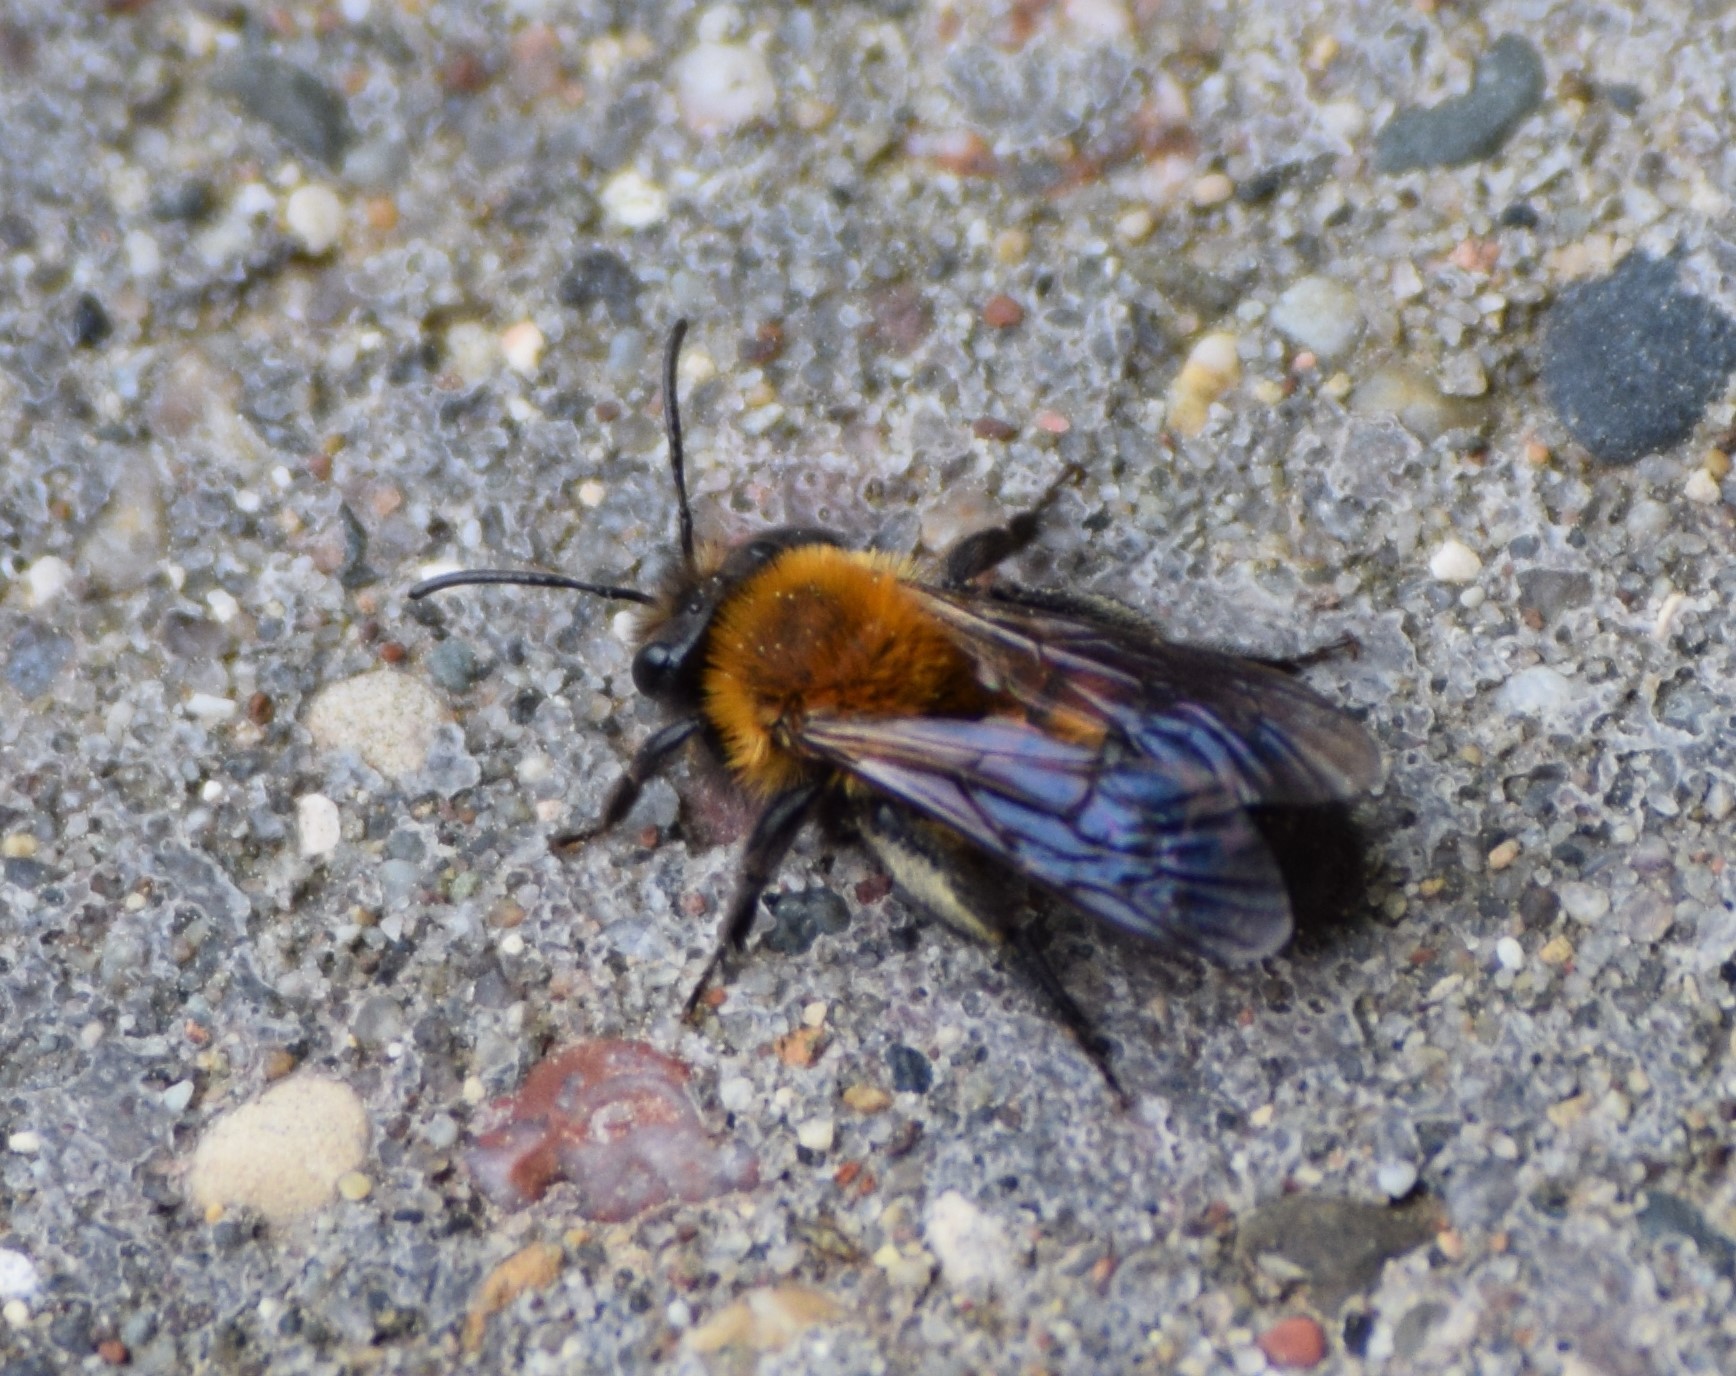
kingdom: Animalia
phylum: Arthropoda
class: Insecta
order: Hymenoptera
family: Andrenidae
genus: Andrena
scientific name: Andrena milwaukeensis
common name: Milwaukee mining bee
